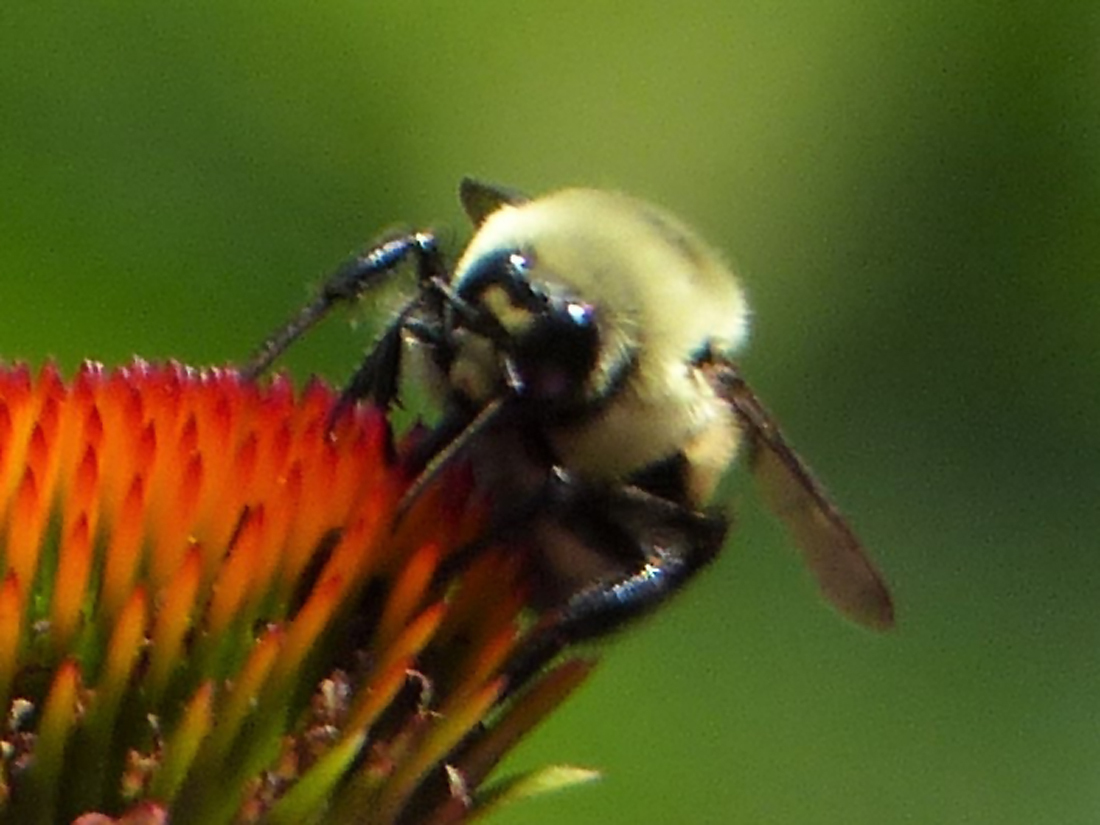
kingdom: Animalia
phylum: Arthropoda
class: Insecta
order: Hymenoptera
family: Apidae
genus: Bombus
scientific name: Bombus griseocollis
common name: Brown-belted bumble bee
